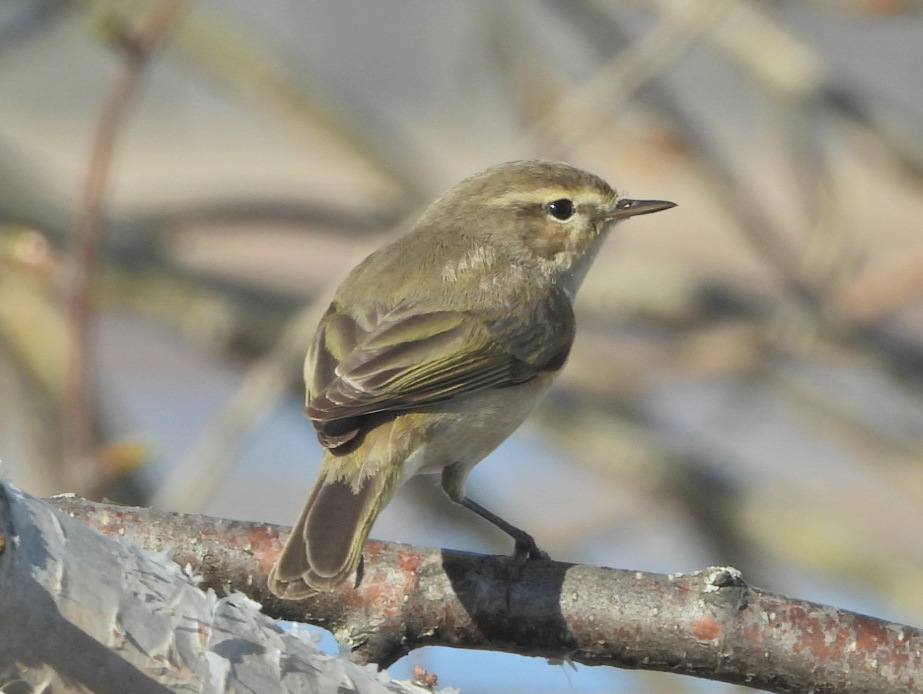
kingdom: Animalia
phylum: Chordata
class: Aves
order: Passeriformes
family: Phylloscopidae
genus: Phylloscopus
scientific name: Phylloscopus collybita
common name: Common chiffchaff
